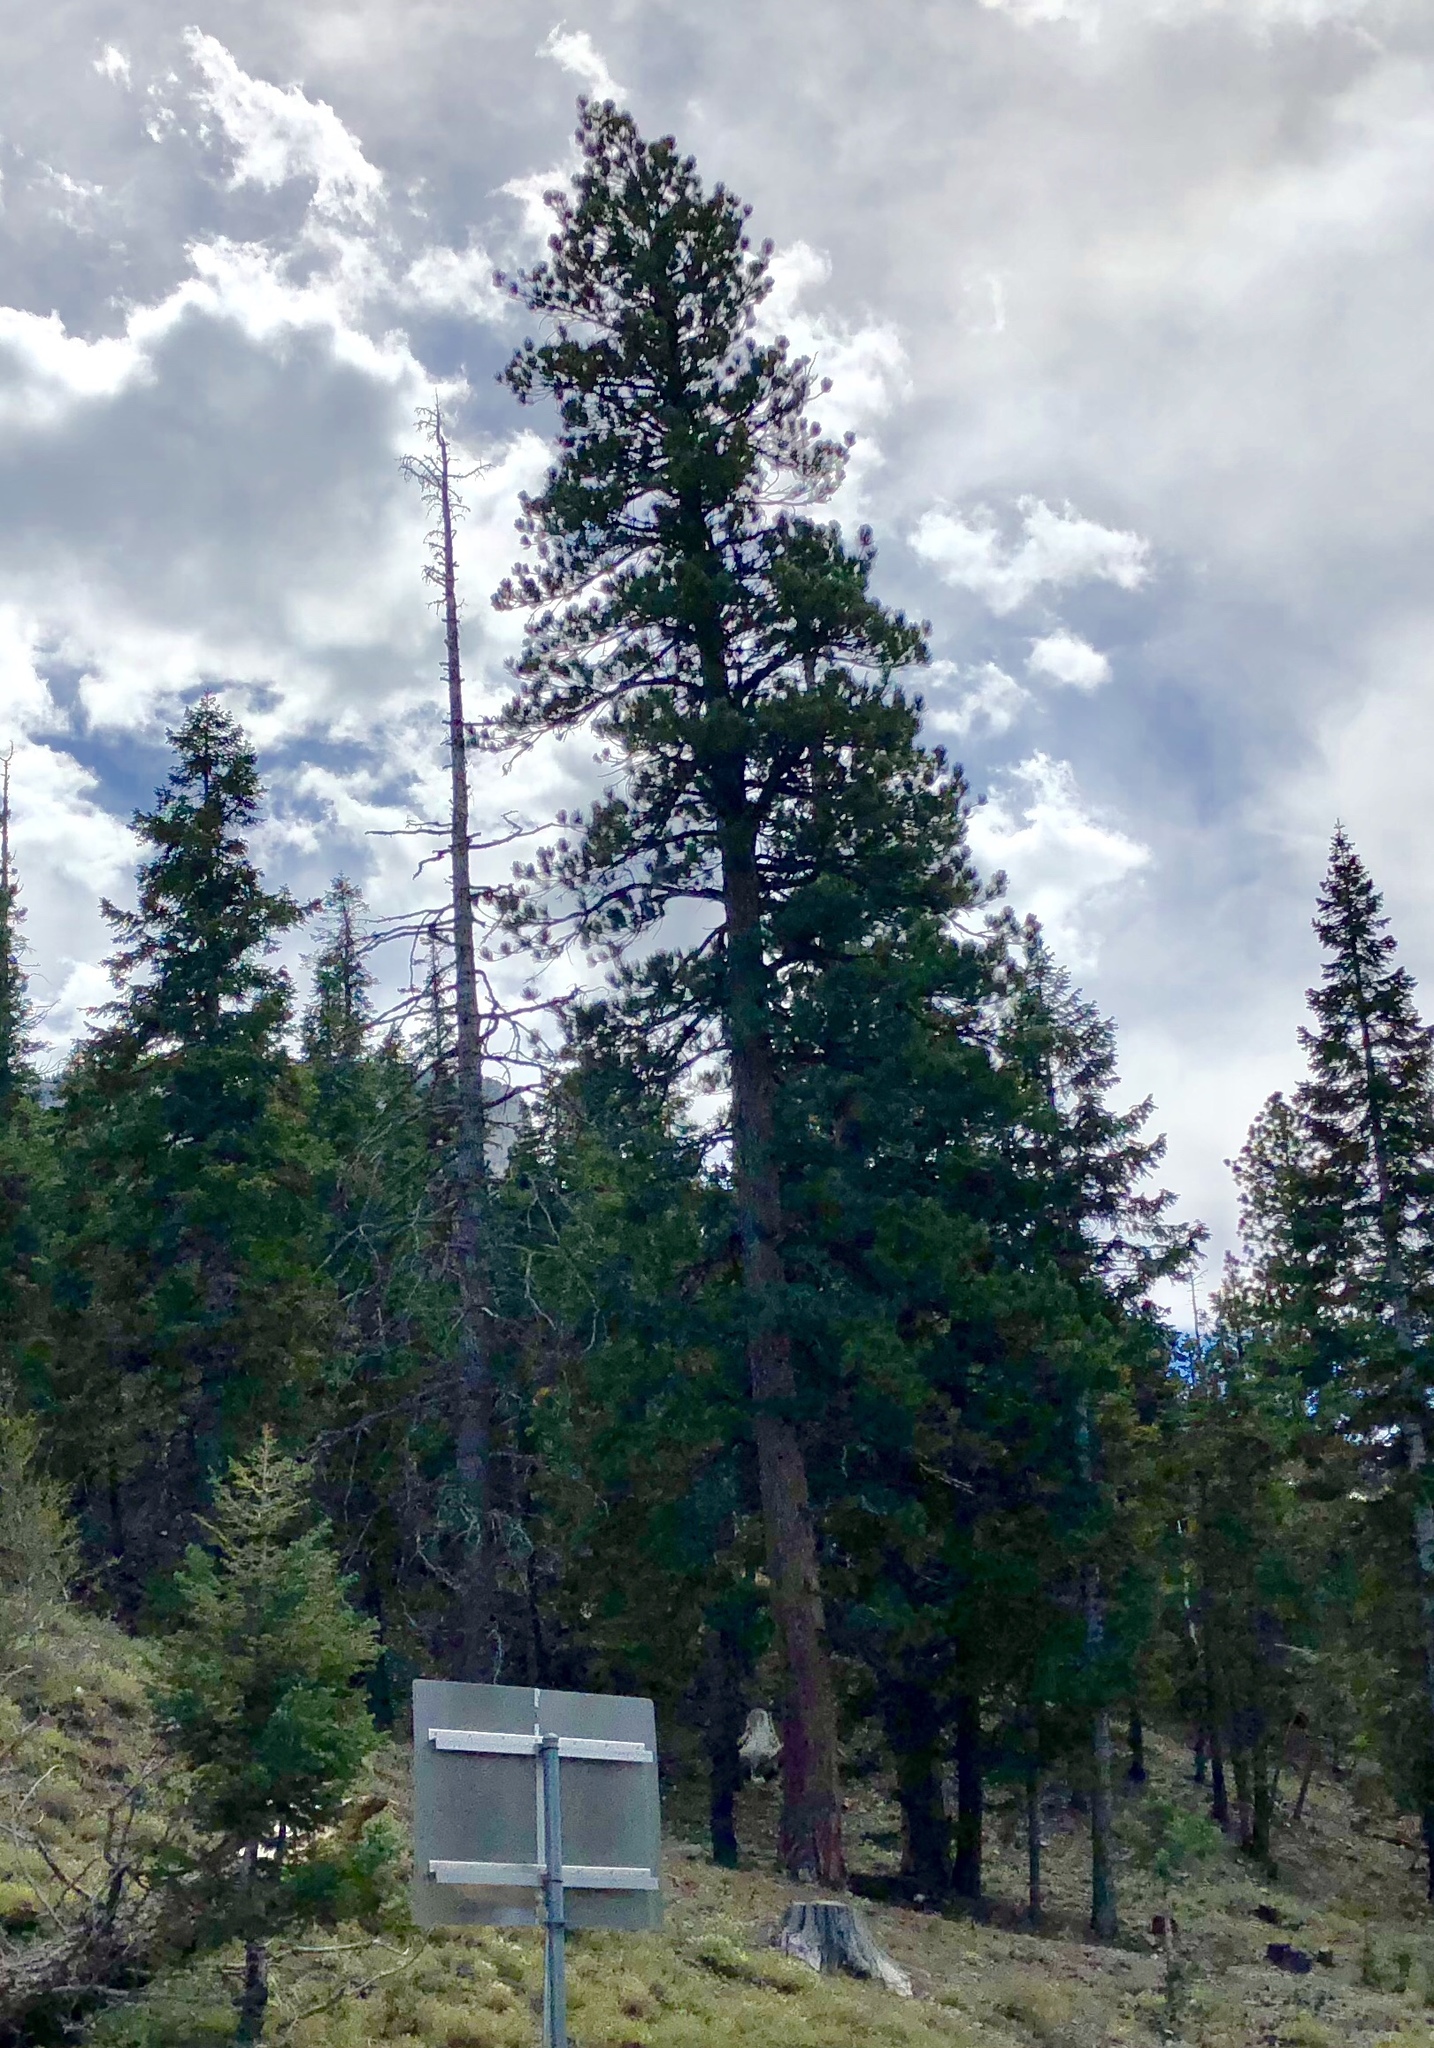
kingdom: Plantae
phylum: Tracheophyta
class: Pinopsida
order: Pinales
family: Pinaceae
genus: Pinus
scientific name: Pinus ponderosa
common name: Western yellow-pine
